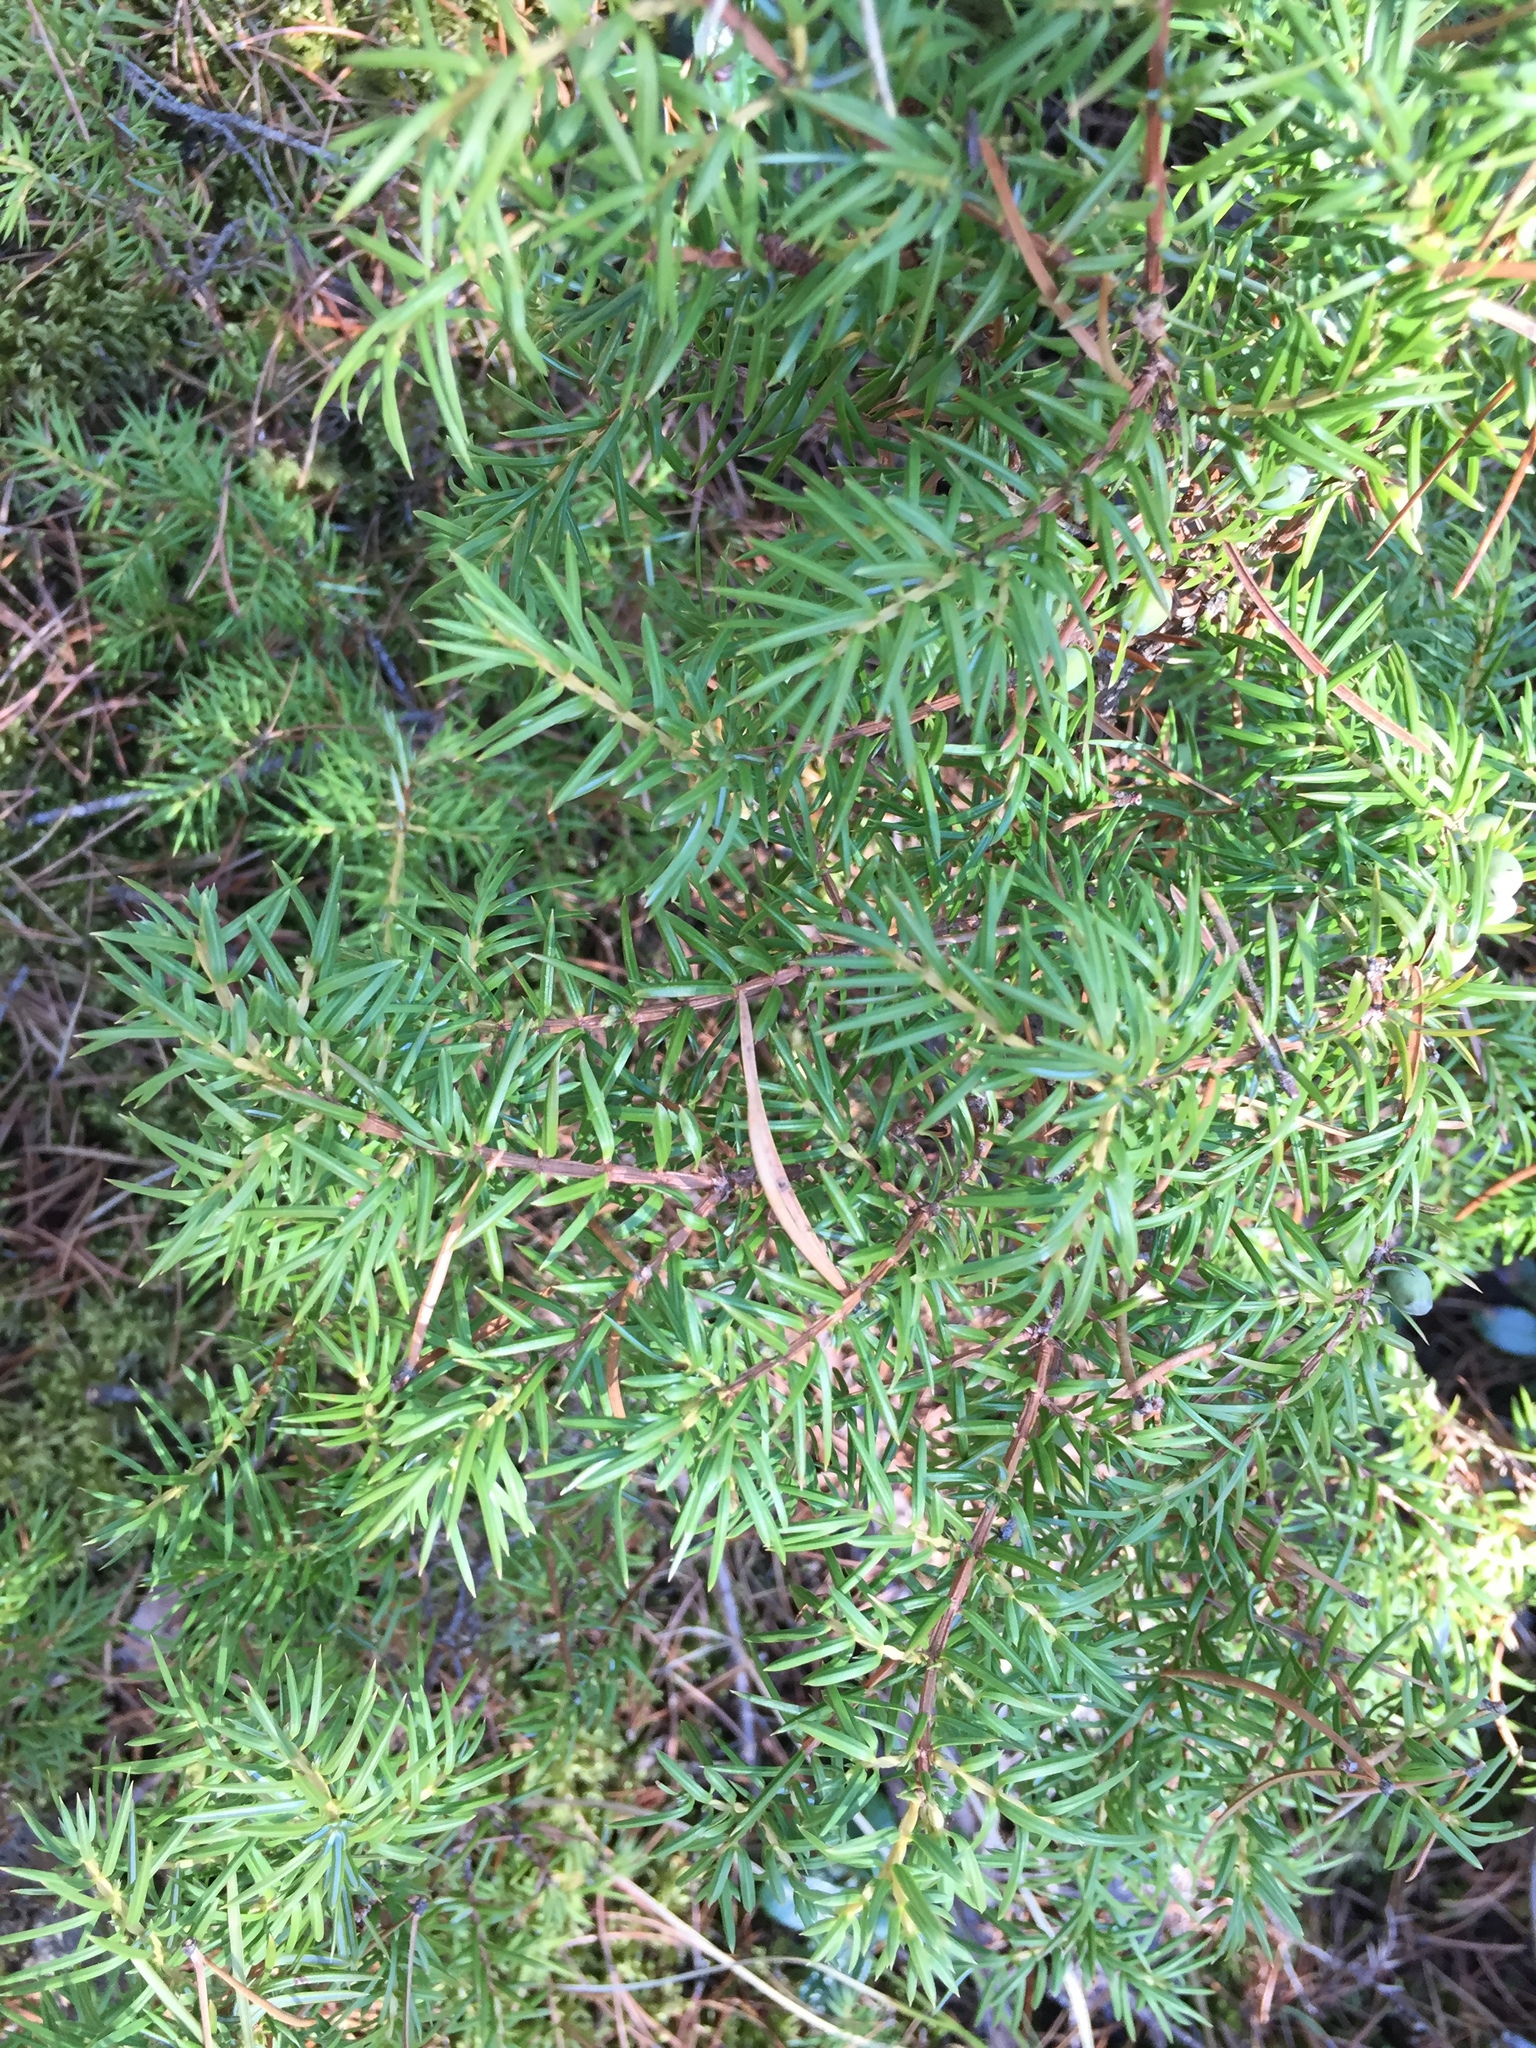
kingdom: Plantae
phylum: Tracheophyta
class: Pinopsida
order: Pinales
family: Cupressaceae
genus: Juniperus
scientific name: Juniperus communis
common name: Common juniper
